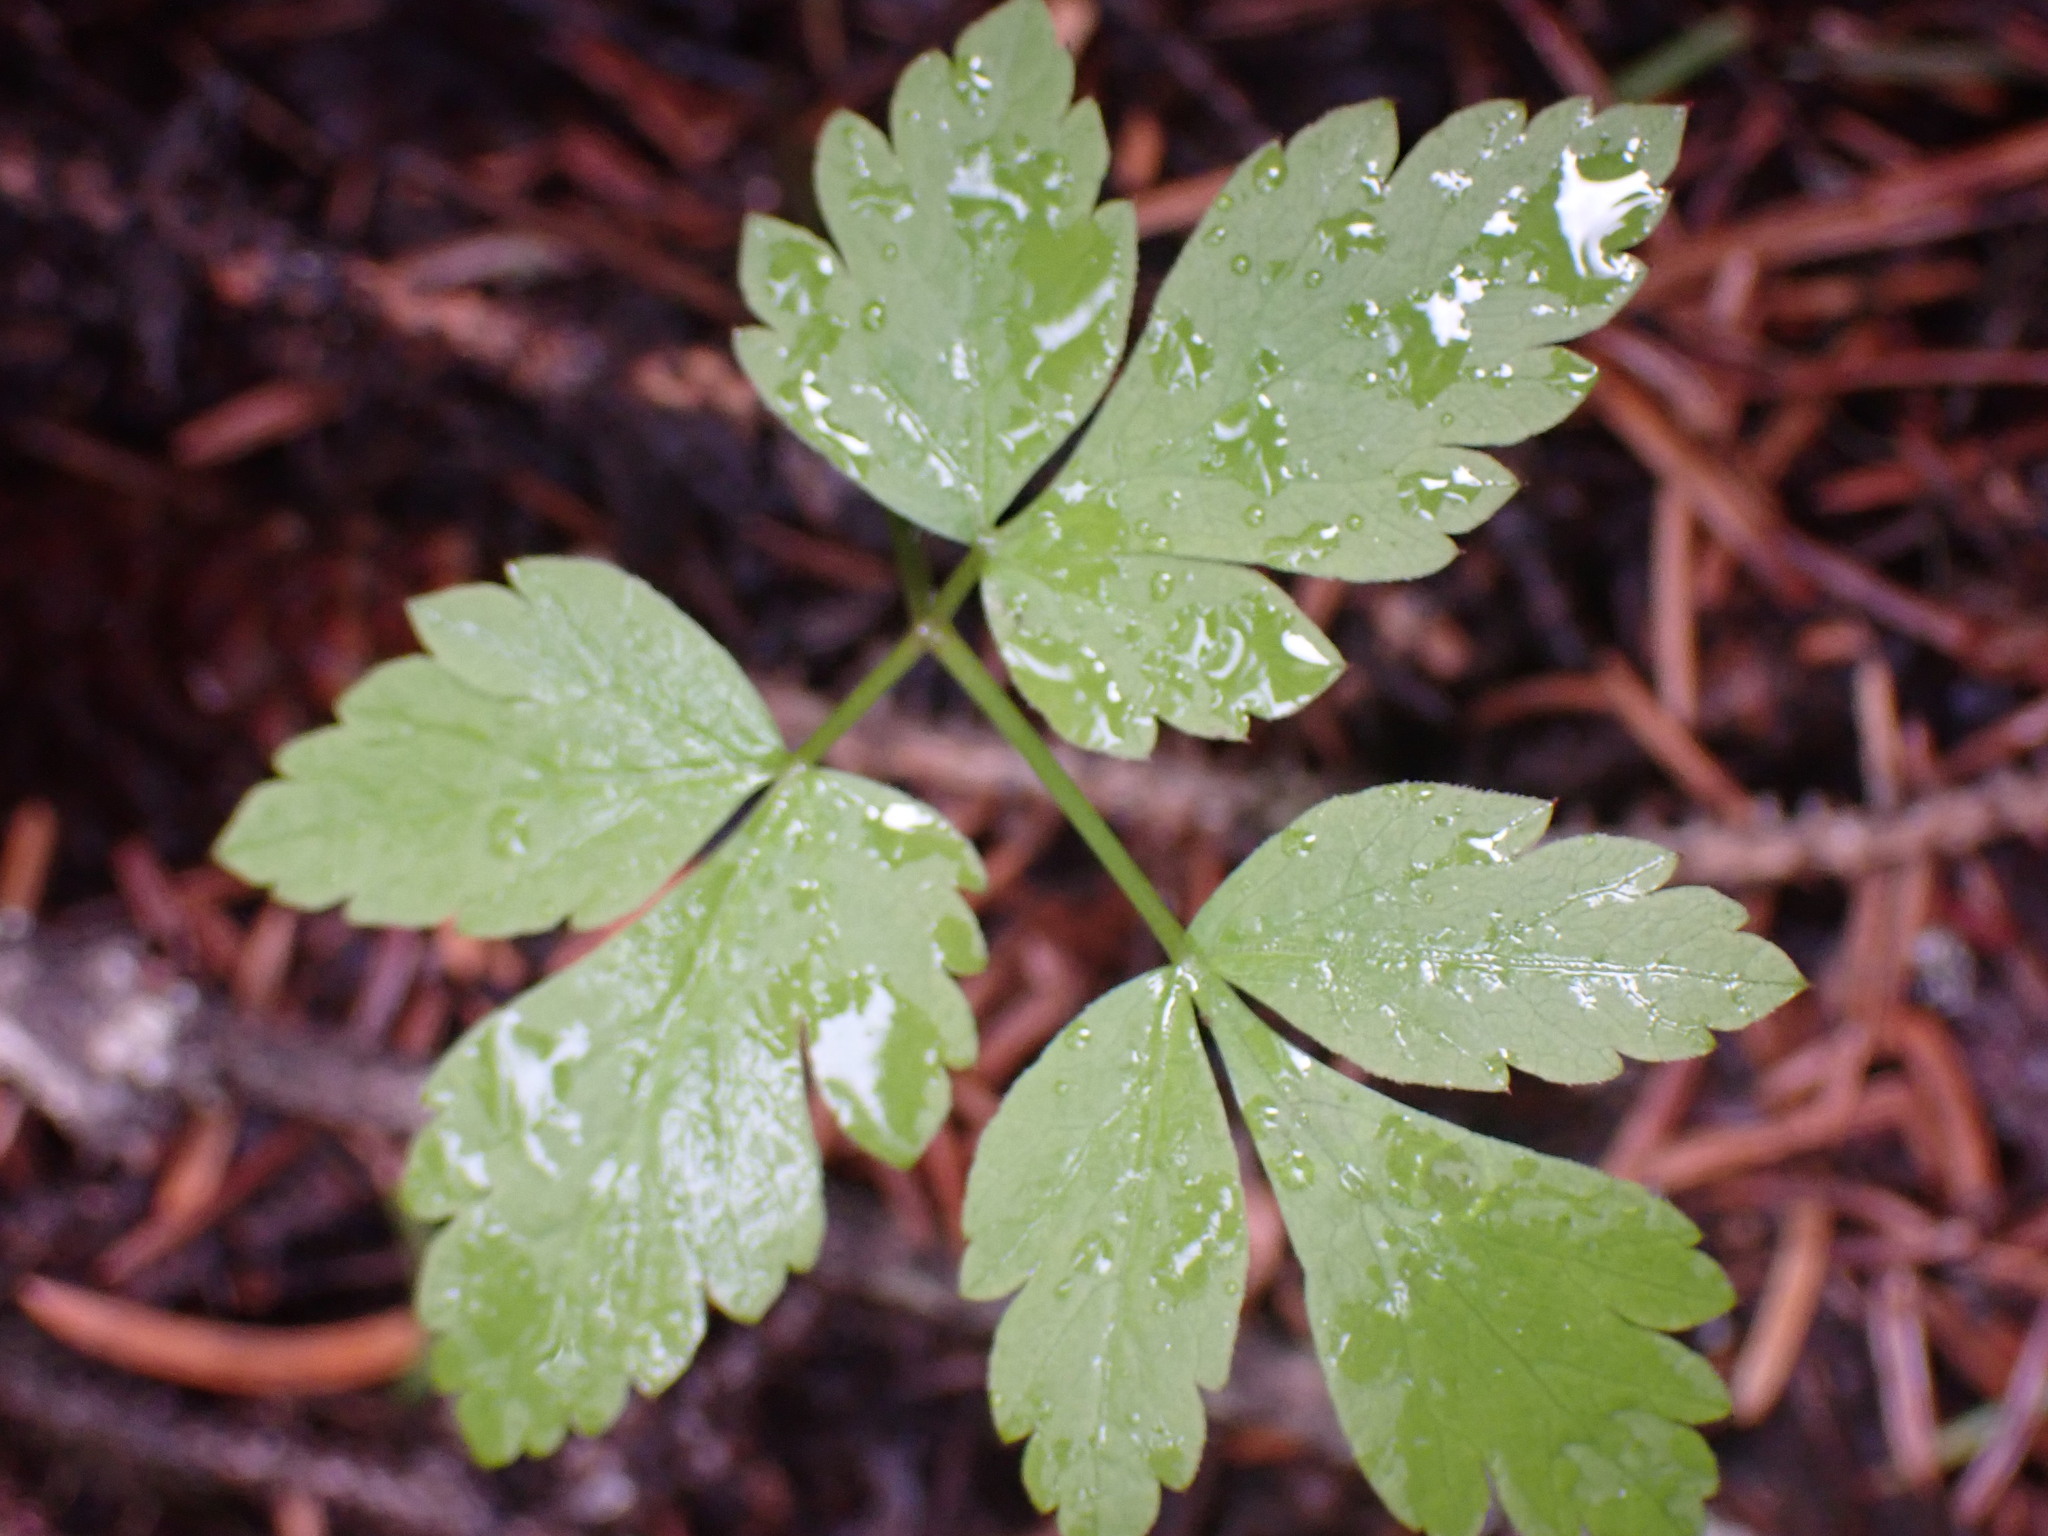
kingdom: Plantae
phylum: Tracheophyta
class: Magnoliopsida
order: Apiales
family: Apiaceae
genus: Osmorhiza
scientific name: Osmorhiza berteroi
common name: Mountain sweet cicely
